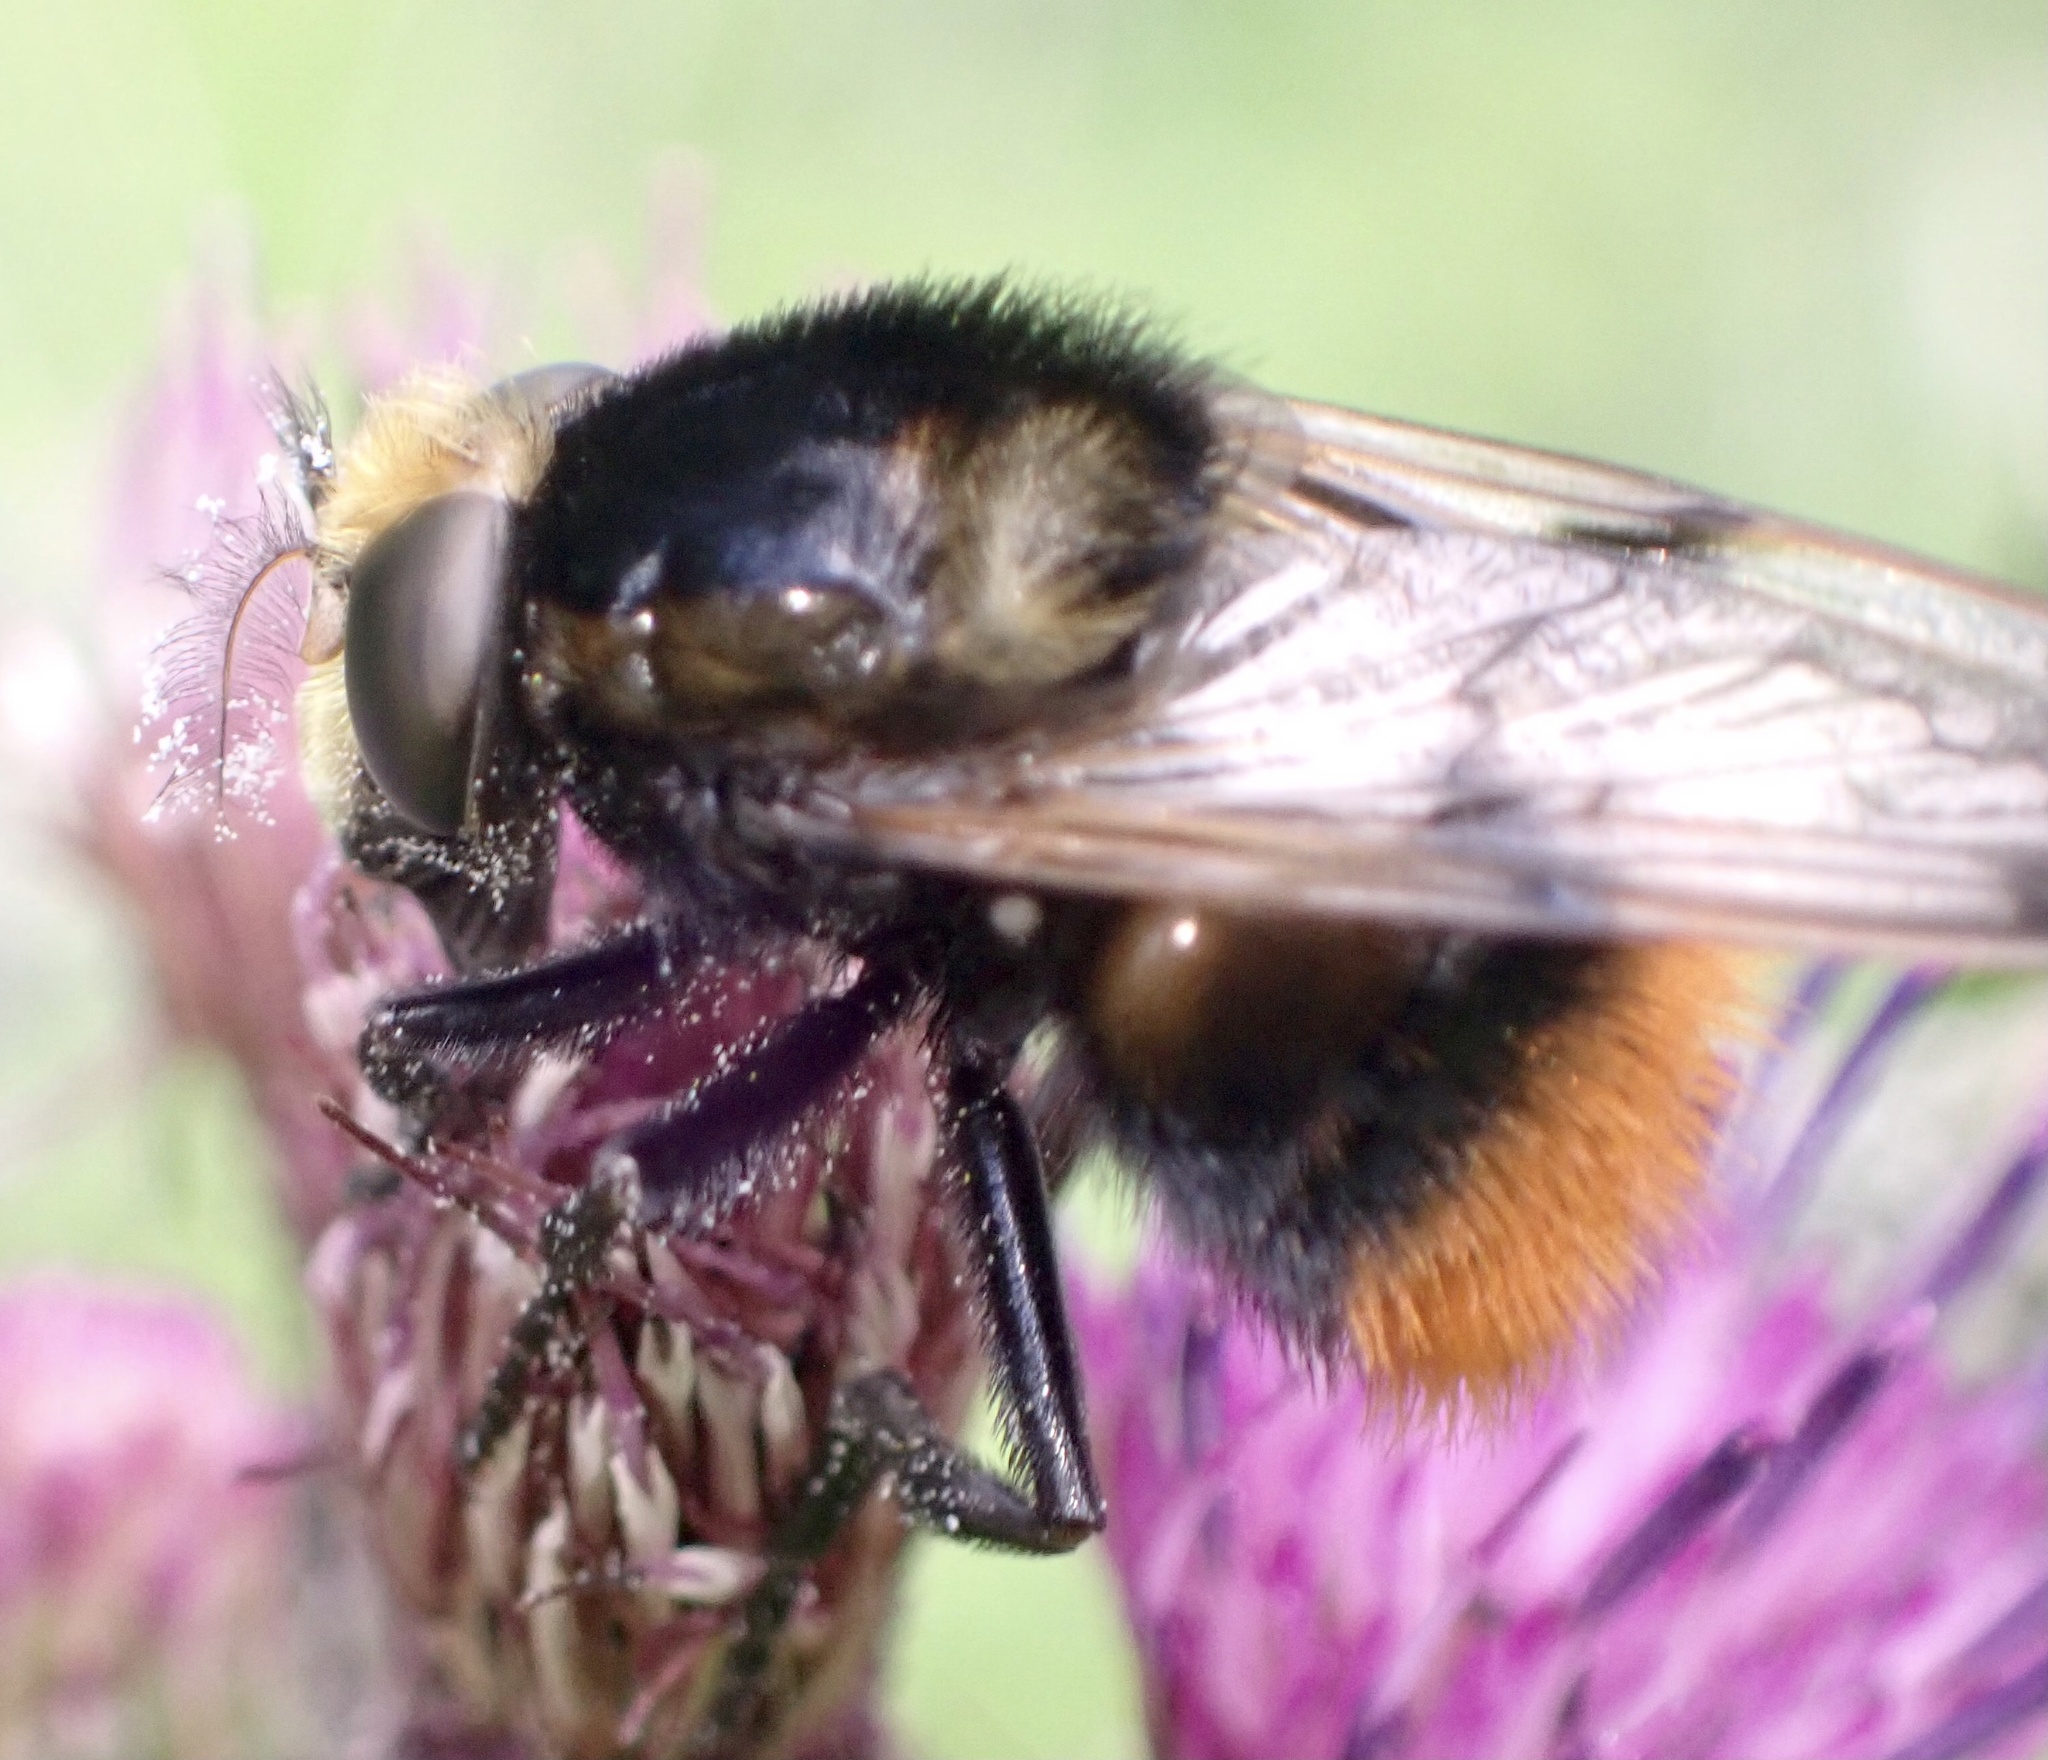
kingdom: Animalia
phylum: Arthropoda
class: Insecta
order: Diptera
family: Syrphidae
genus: Volucella
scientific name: Volucella bombylans
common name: Bumble bee hover fly
